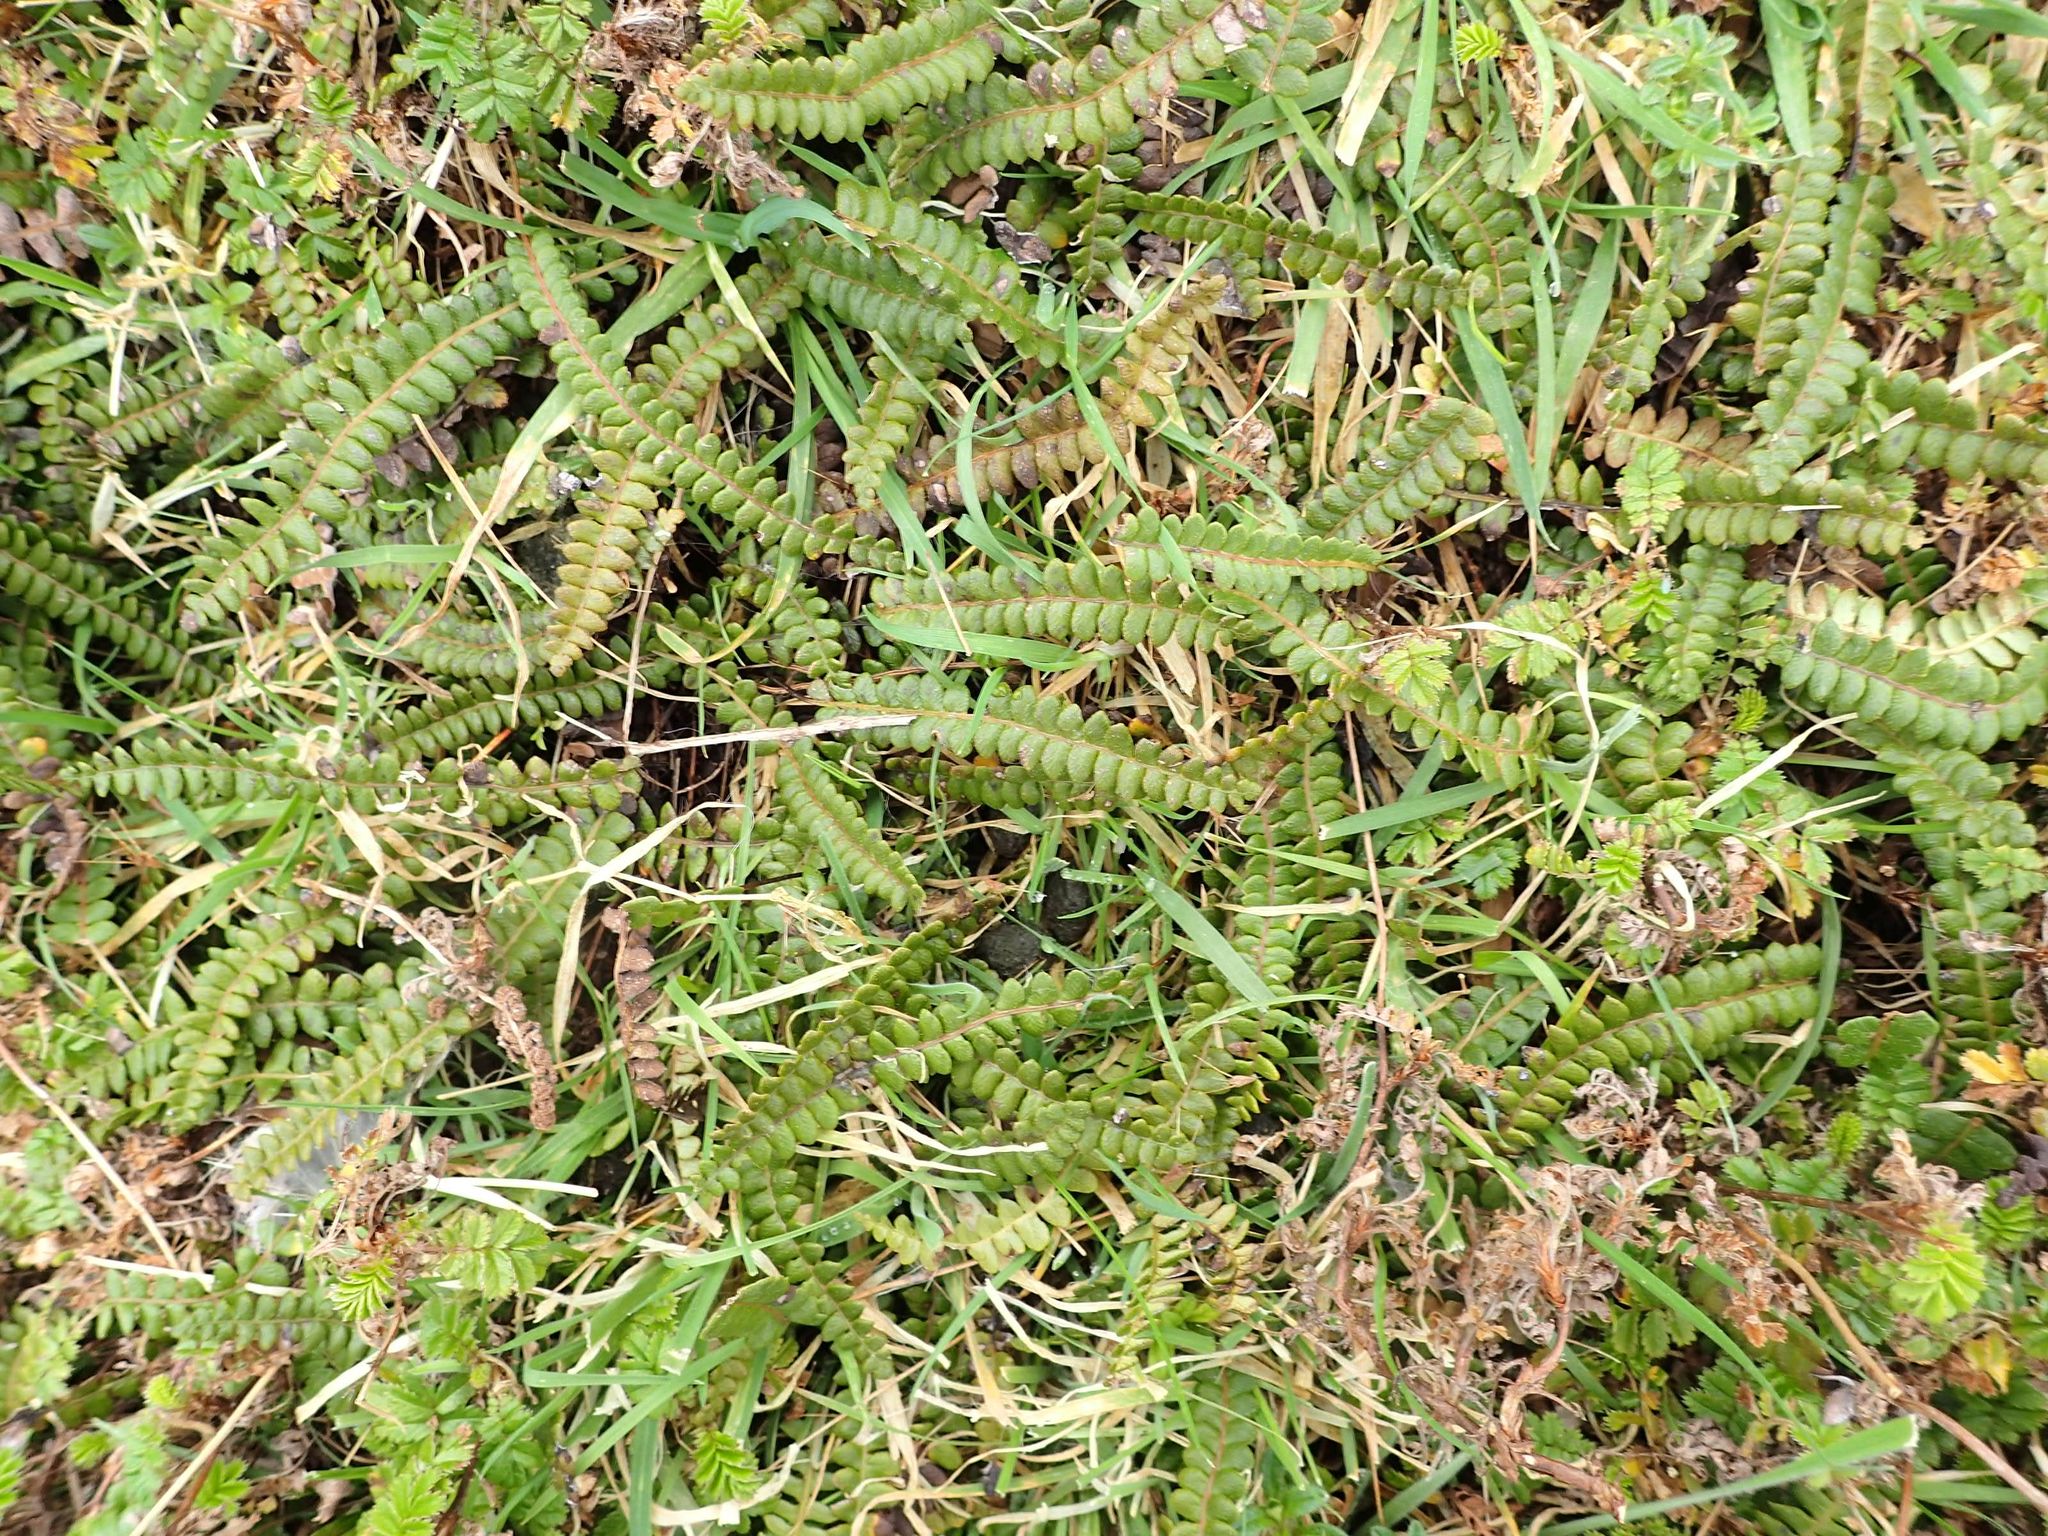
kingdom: Plantae
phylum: Tracheophyta
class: Polypodiopsida
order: Polypodiales
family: Blechnaceae
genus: Austroblechnum
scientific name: Austroblechnum penna-marina
